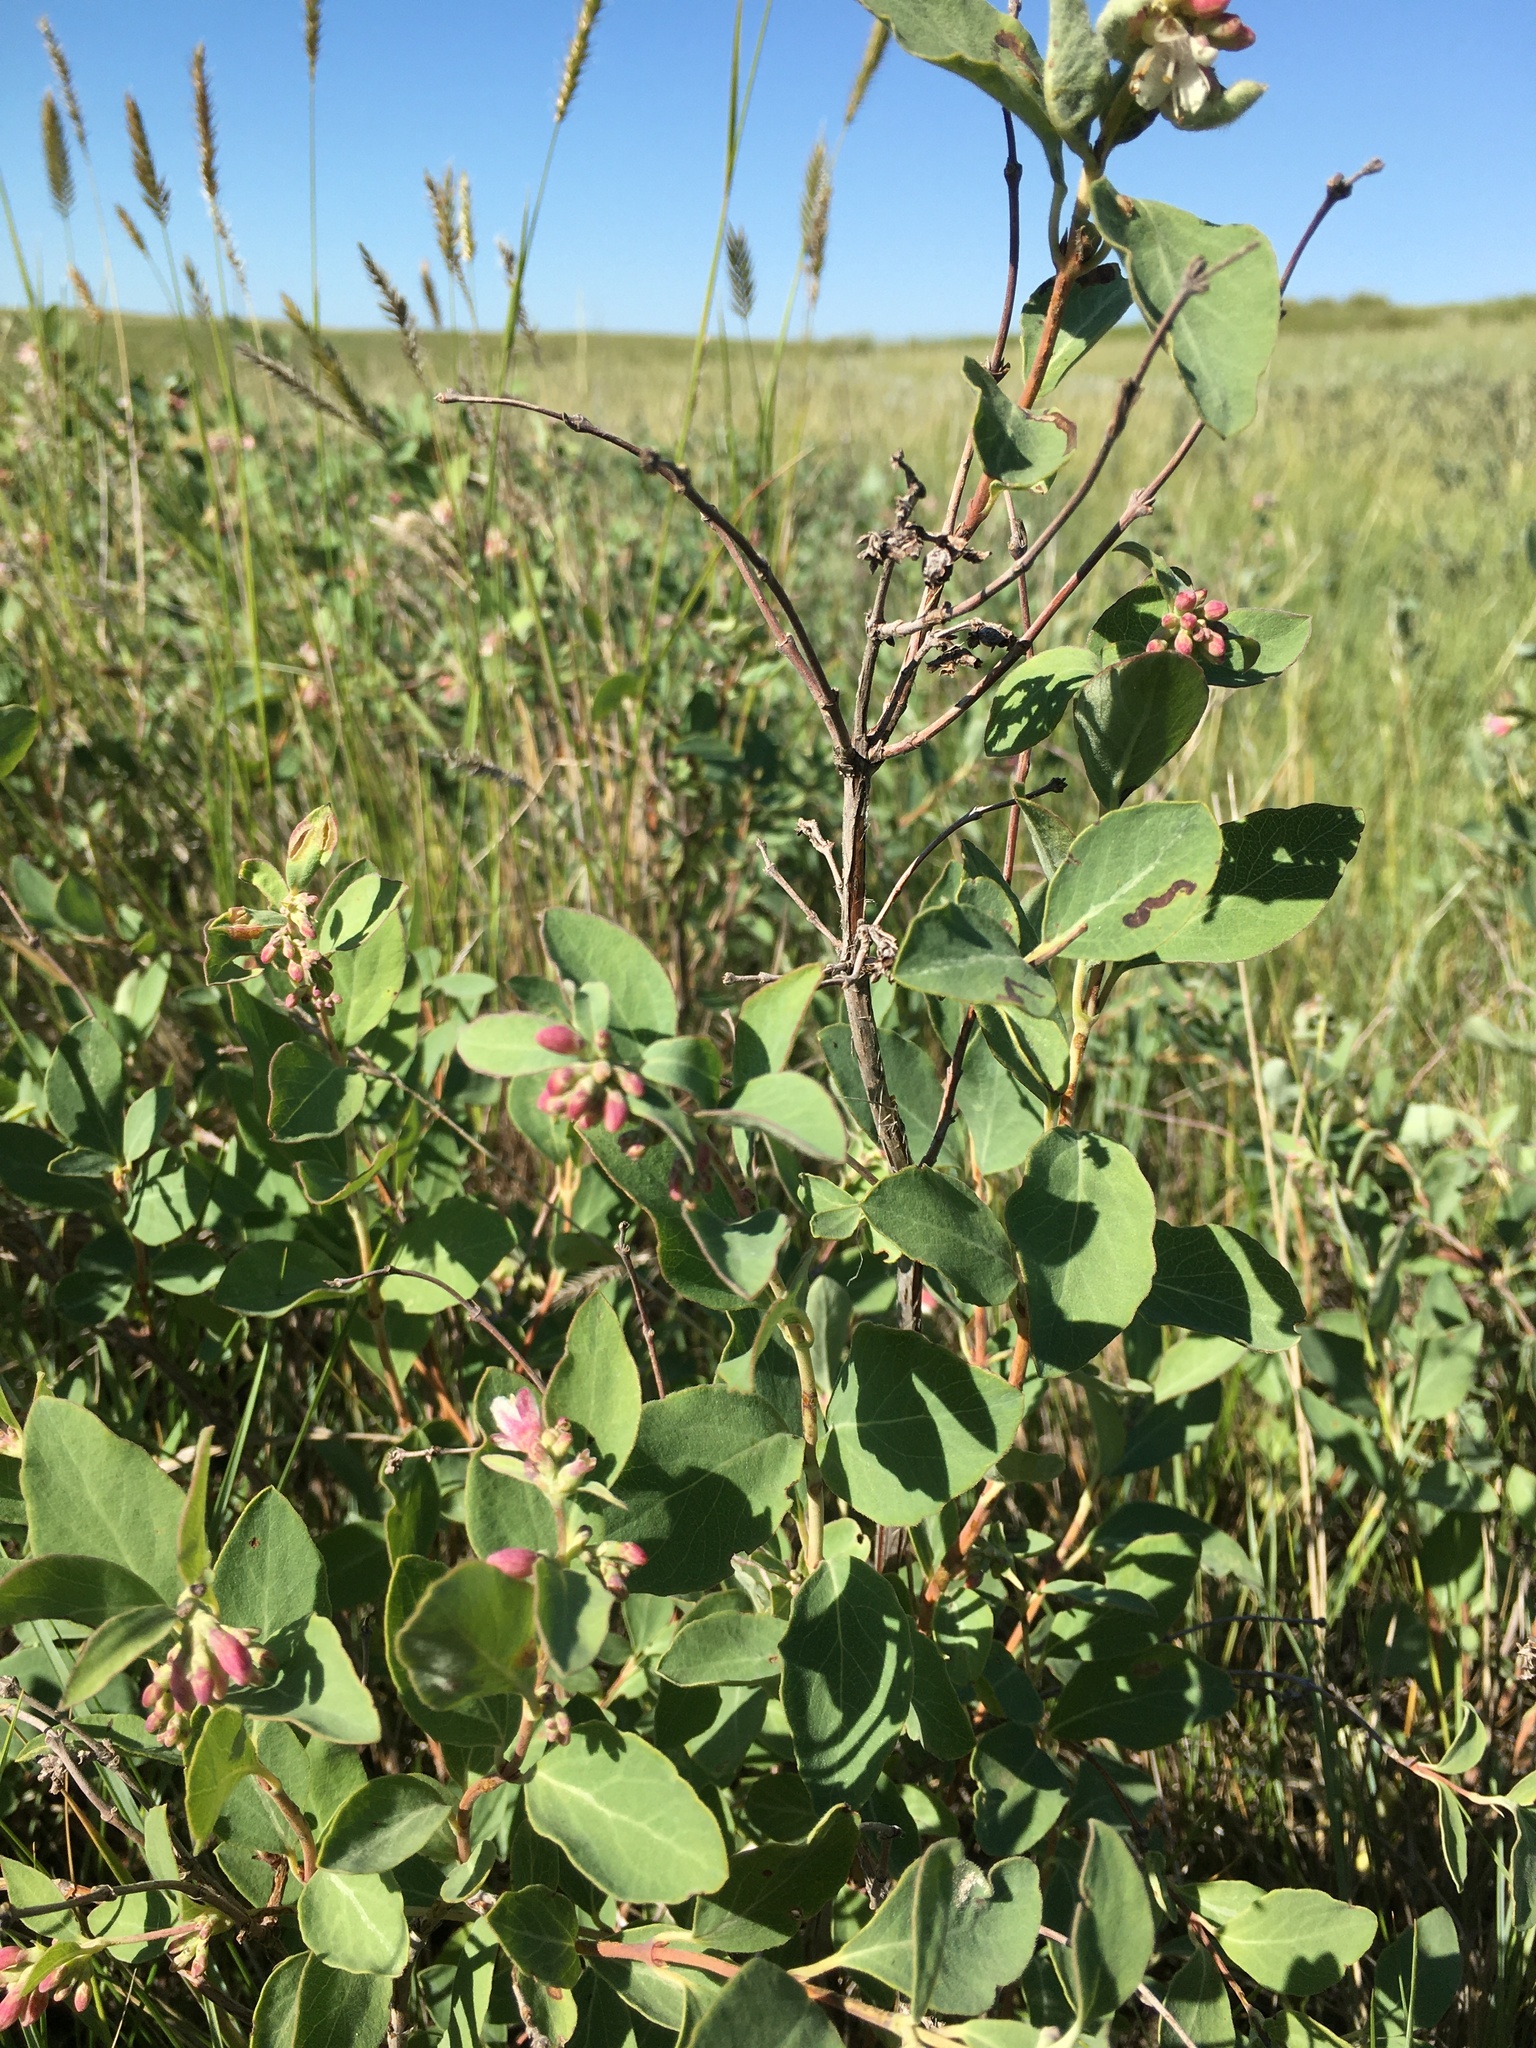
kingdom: Plantae
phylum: Tracheophyta
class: Magnoliopsida
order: Dipsacales
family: Caprifoliaceae
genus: Symphoricarpos
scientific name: Symphoricarpos occidentalis
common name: Wolfberry
